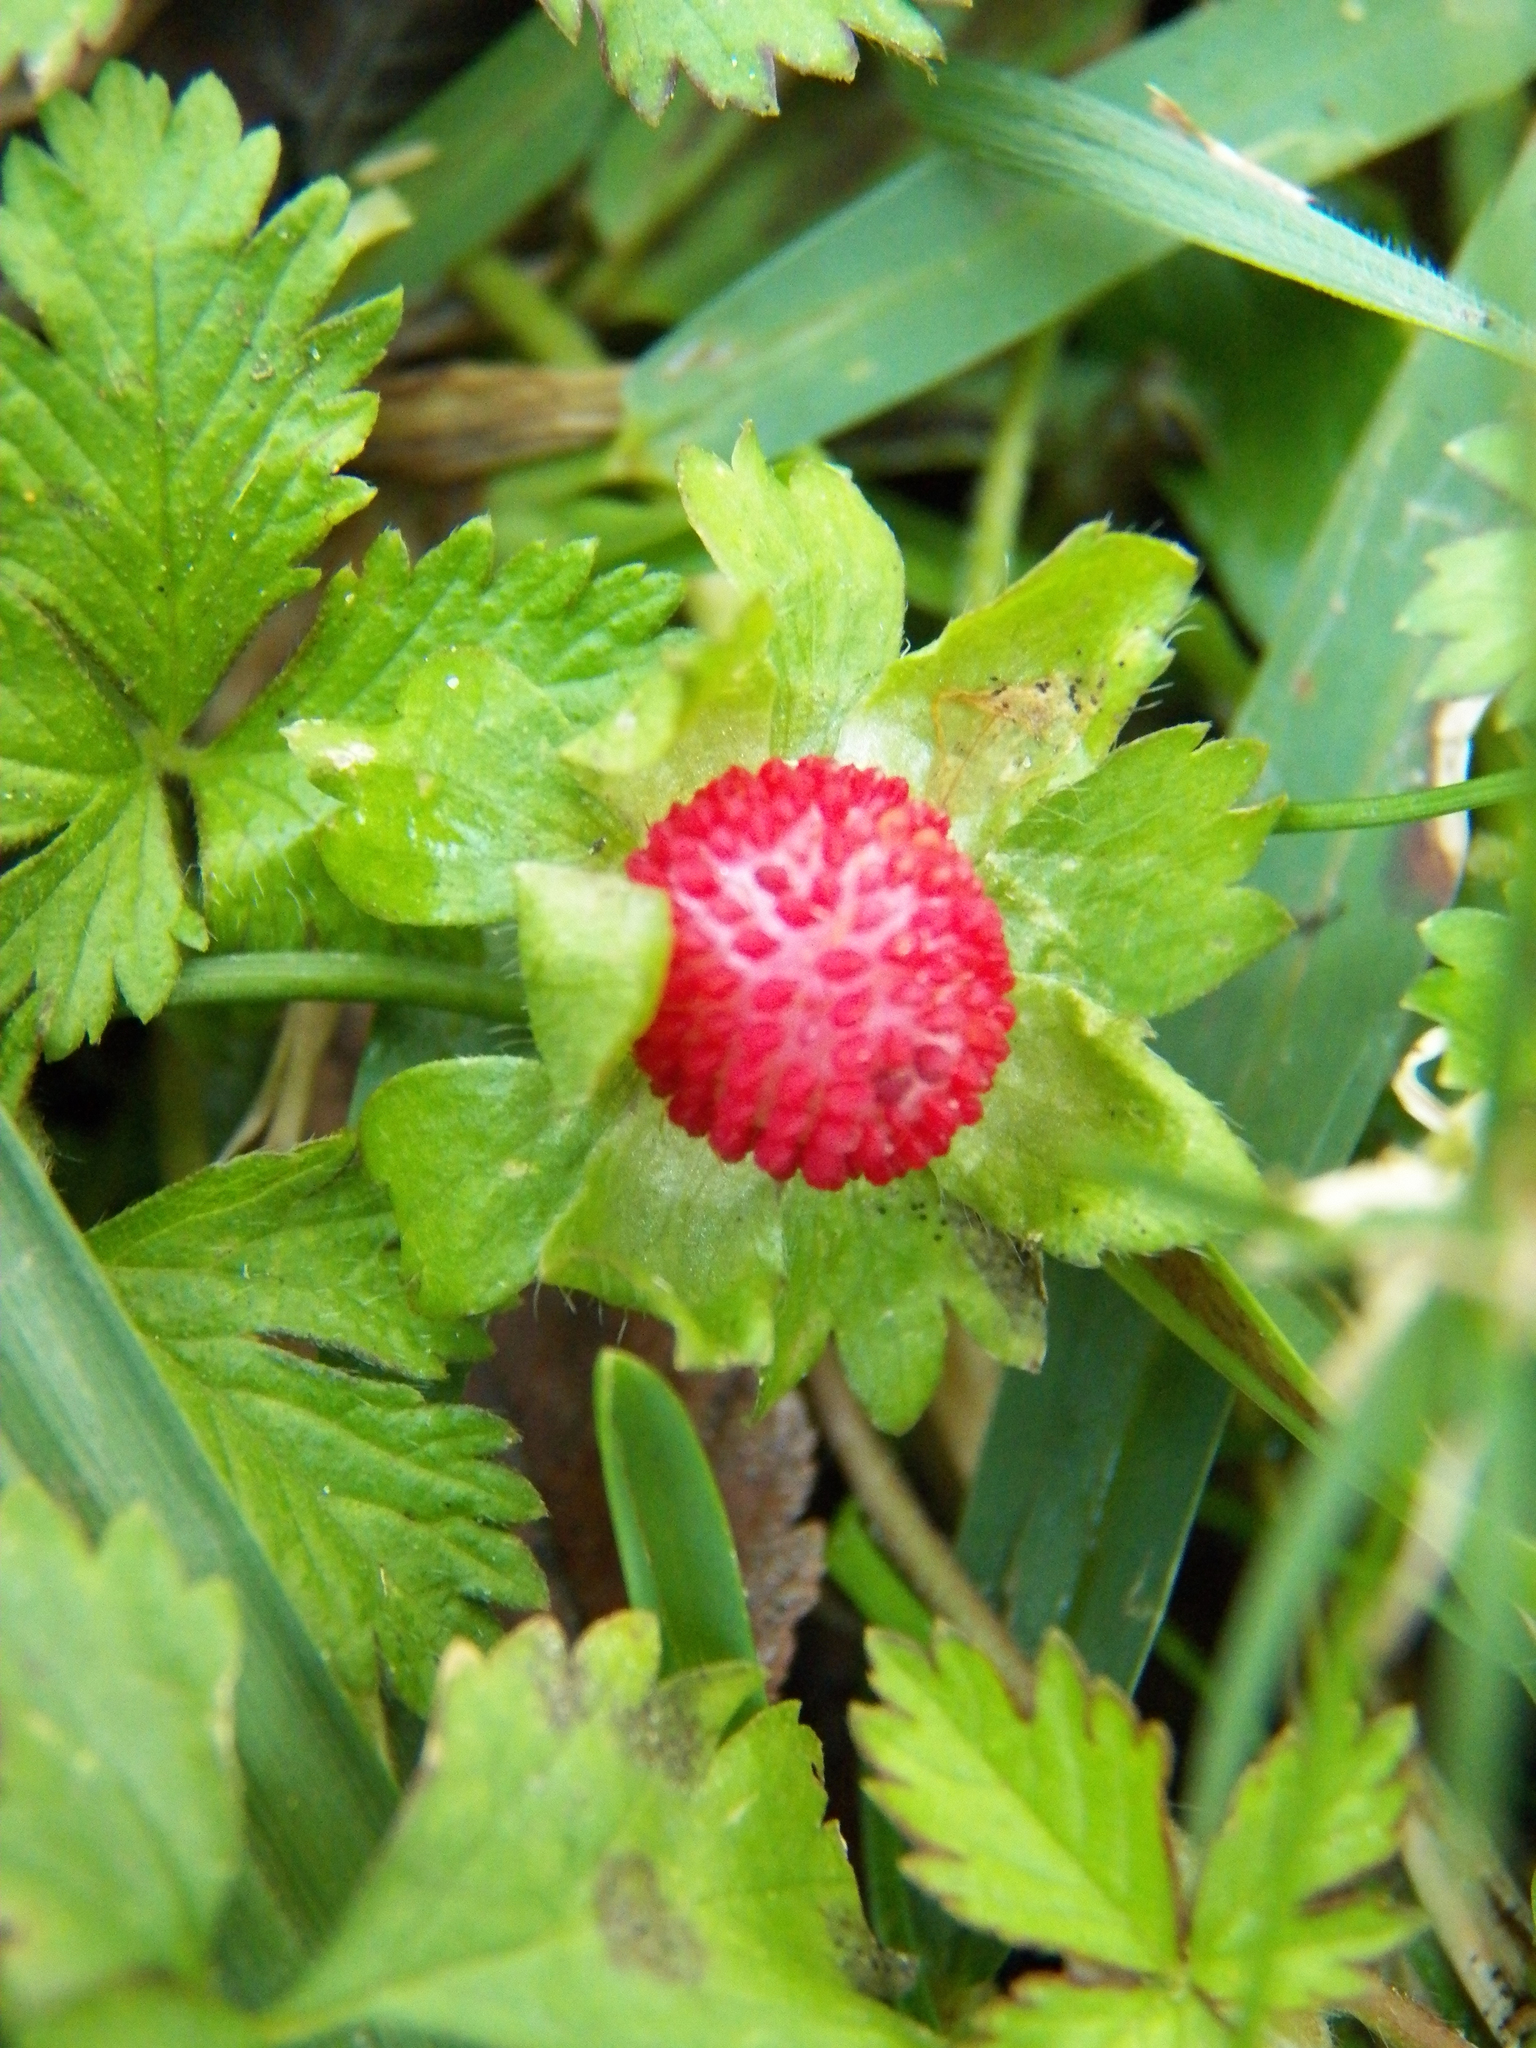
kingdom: Plantae
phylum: Tracheophyta
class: Magnoliopsida
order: Rosales
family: Rosaceae
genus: Potentilla
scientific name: Potentilla indica
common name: Yellow-flowered strawberry
